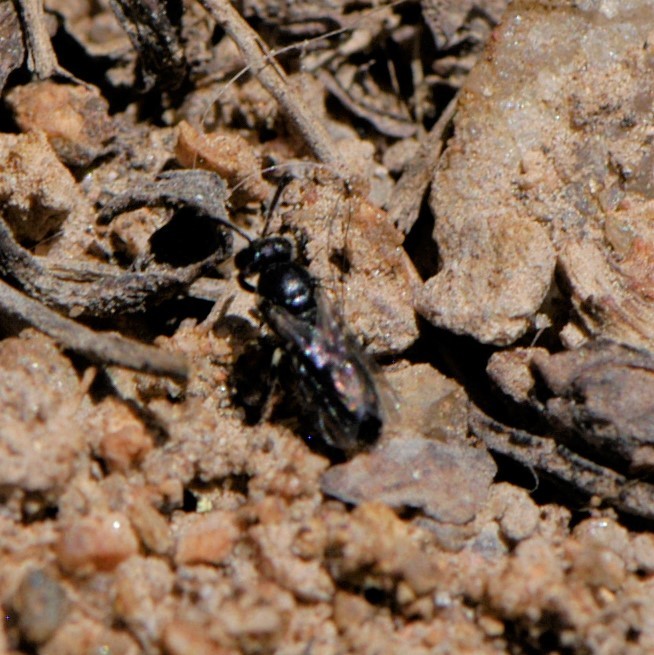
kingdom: Animalia
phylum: Arthropoda
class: Insecta
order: Hymenoptera
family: Colletidae
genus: Hylaeus
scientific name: Hylaeus
